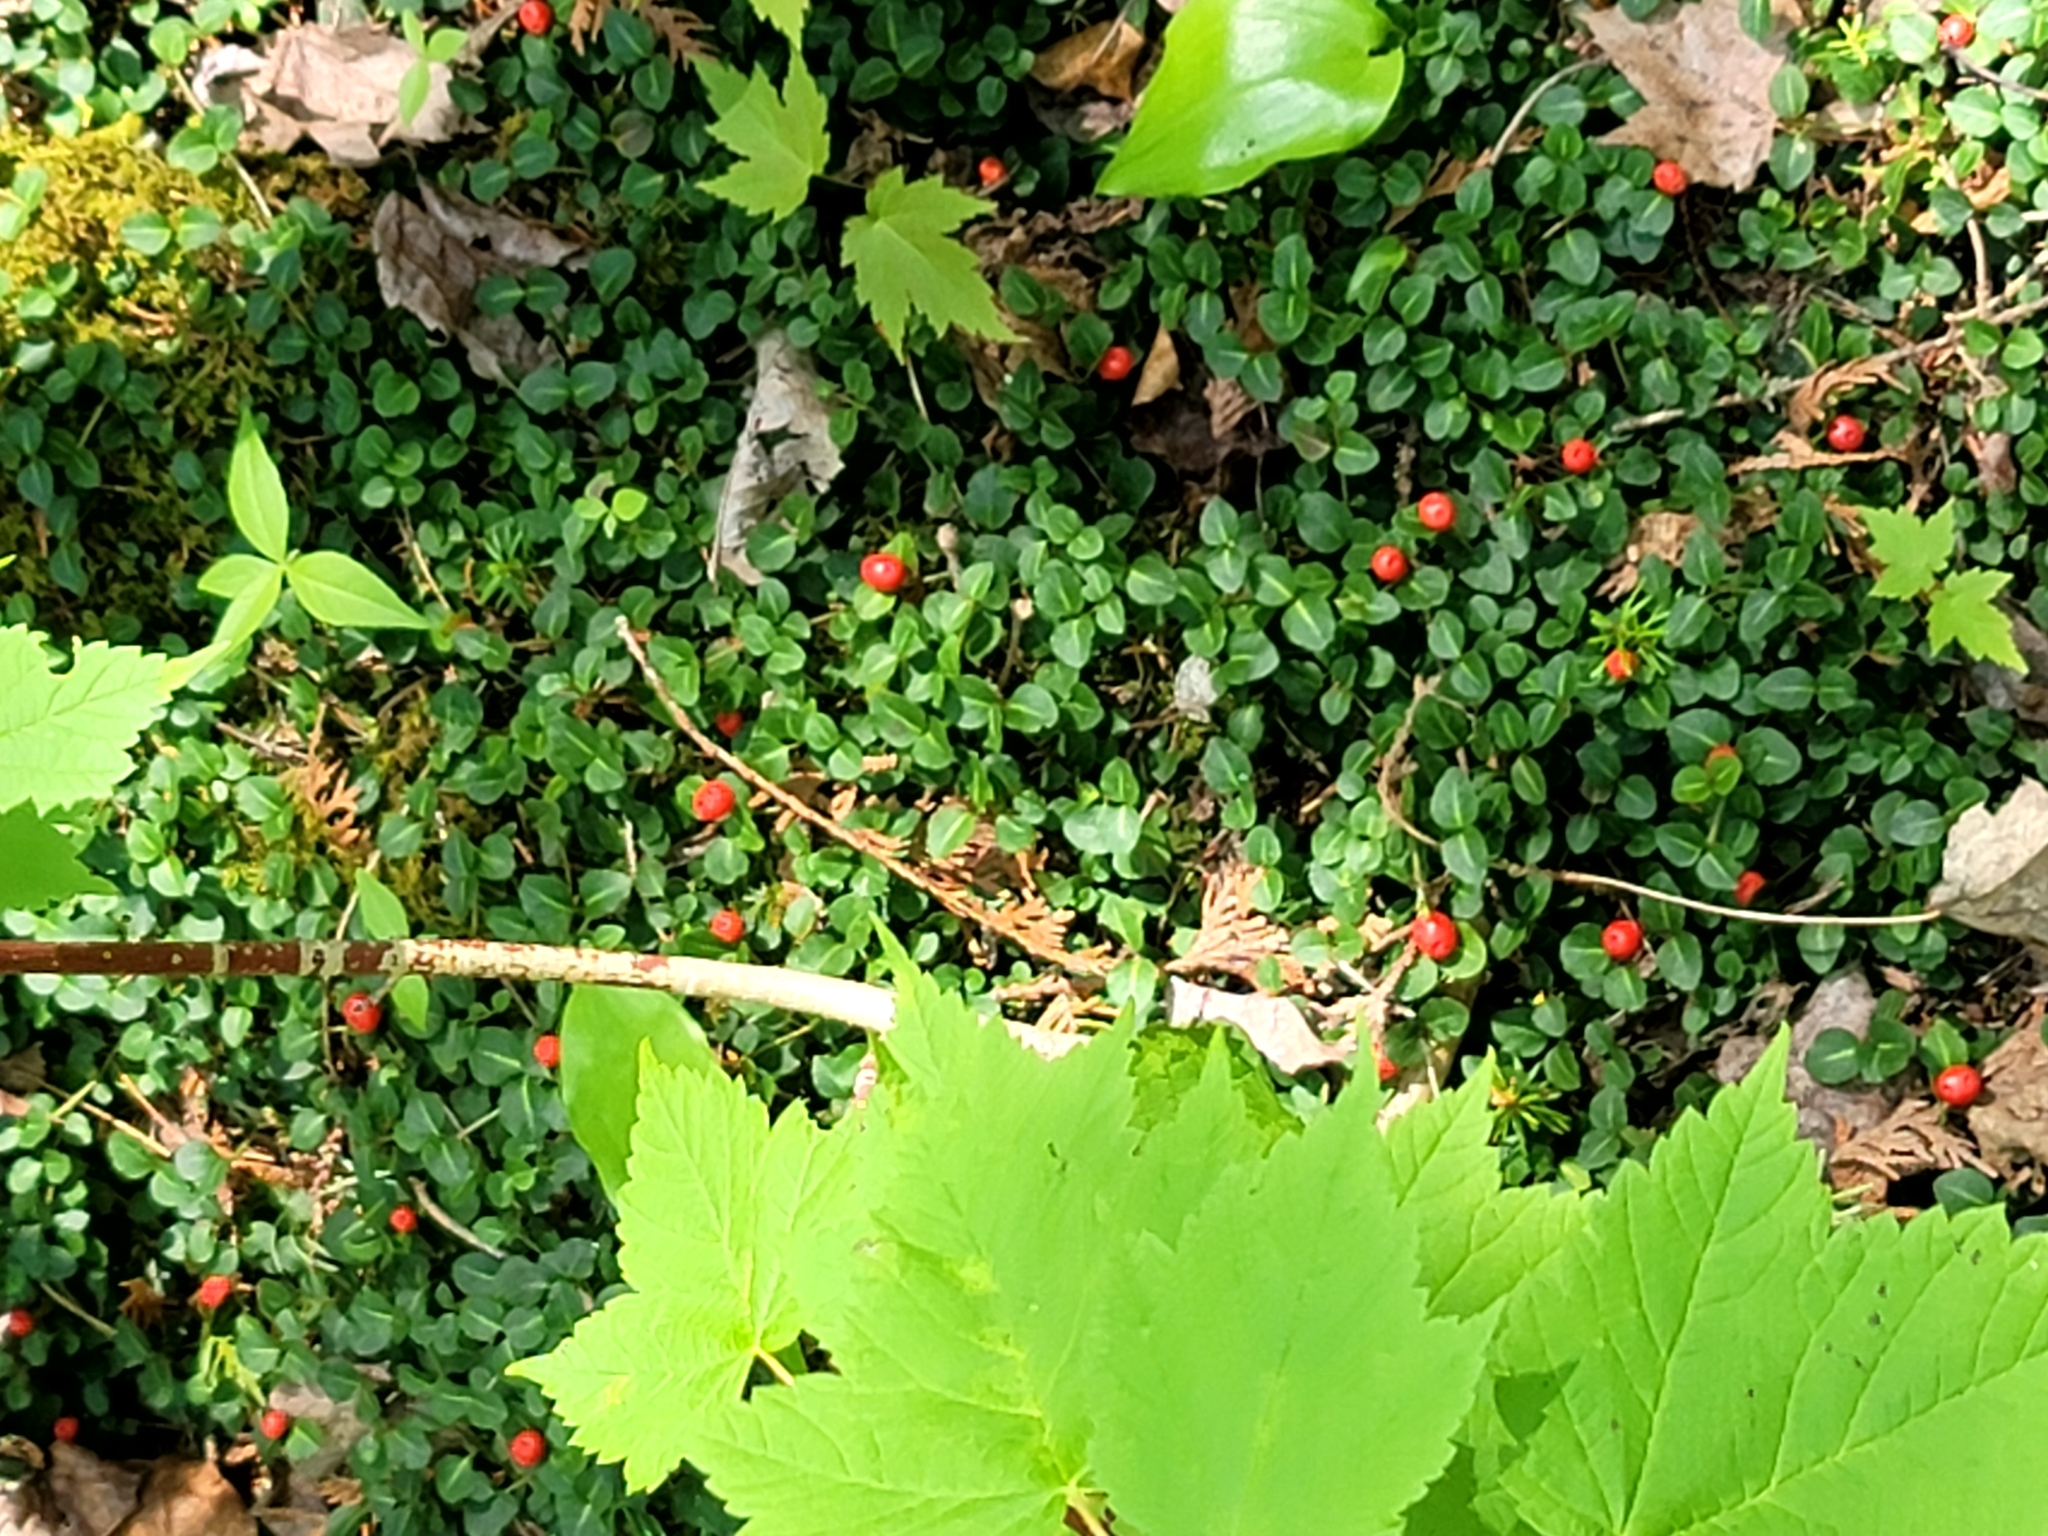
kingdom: Plantae
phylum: Tracheophyta
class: Magnoliopsida
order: Gentianales
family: Rubiaceae
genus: Mitchella
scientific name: Mitchella repens
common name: Partridge-berry
